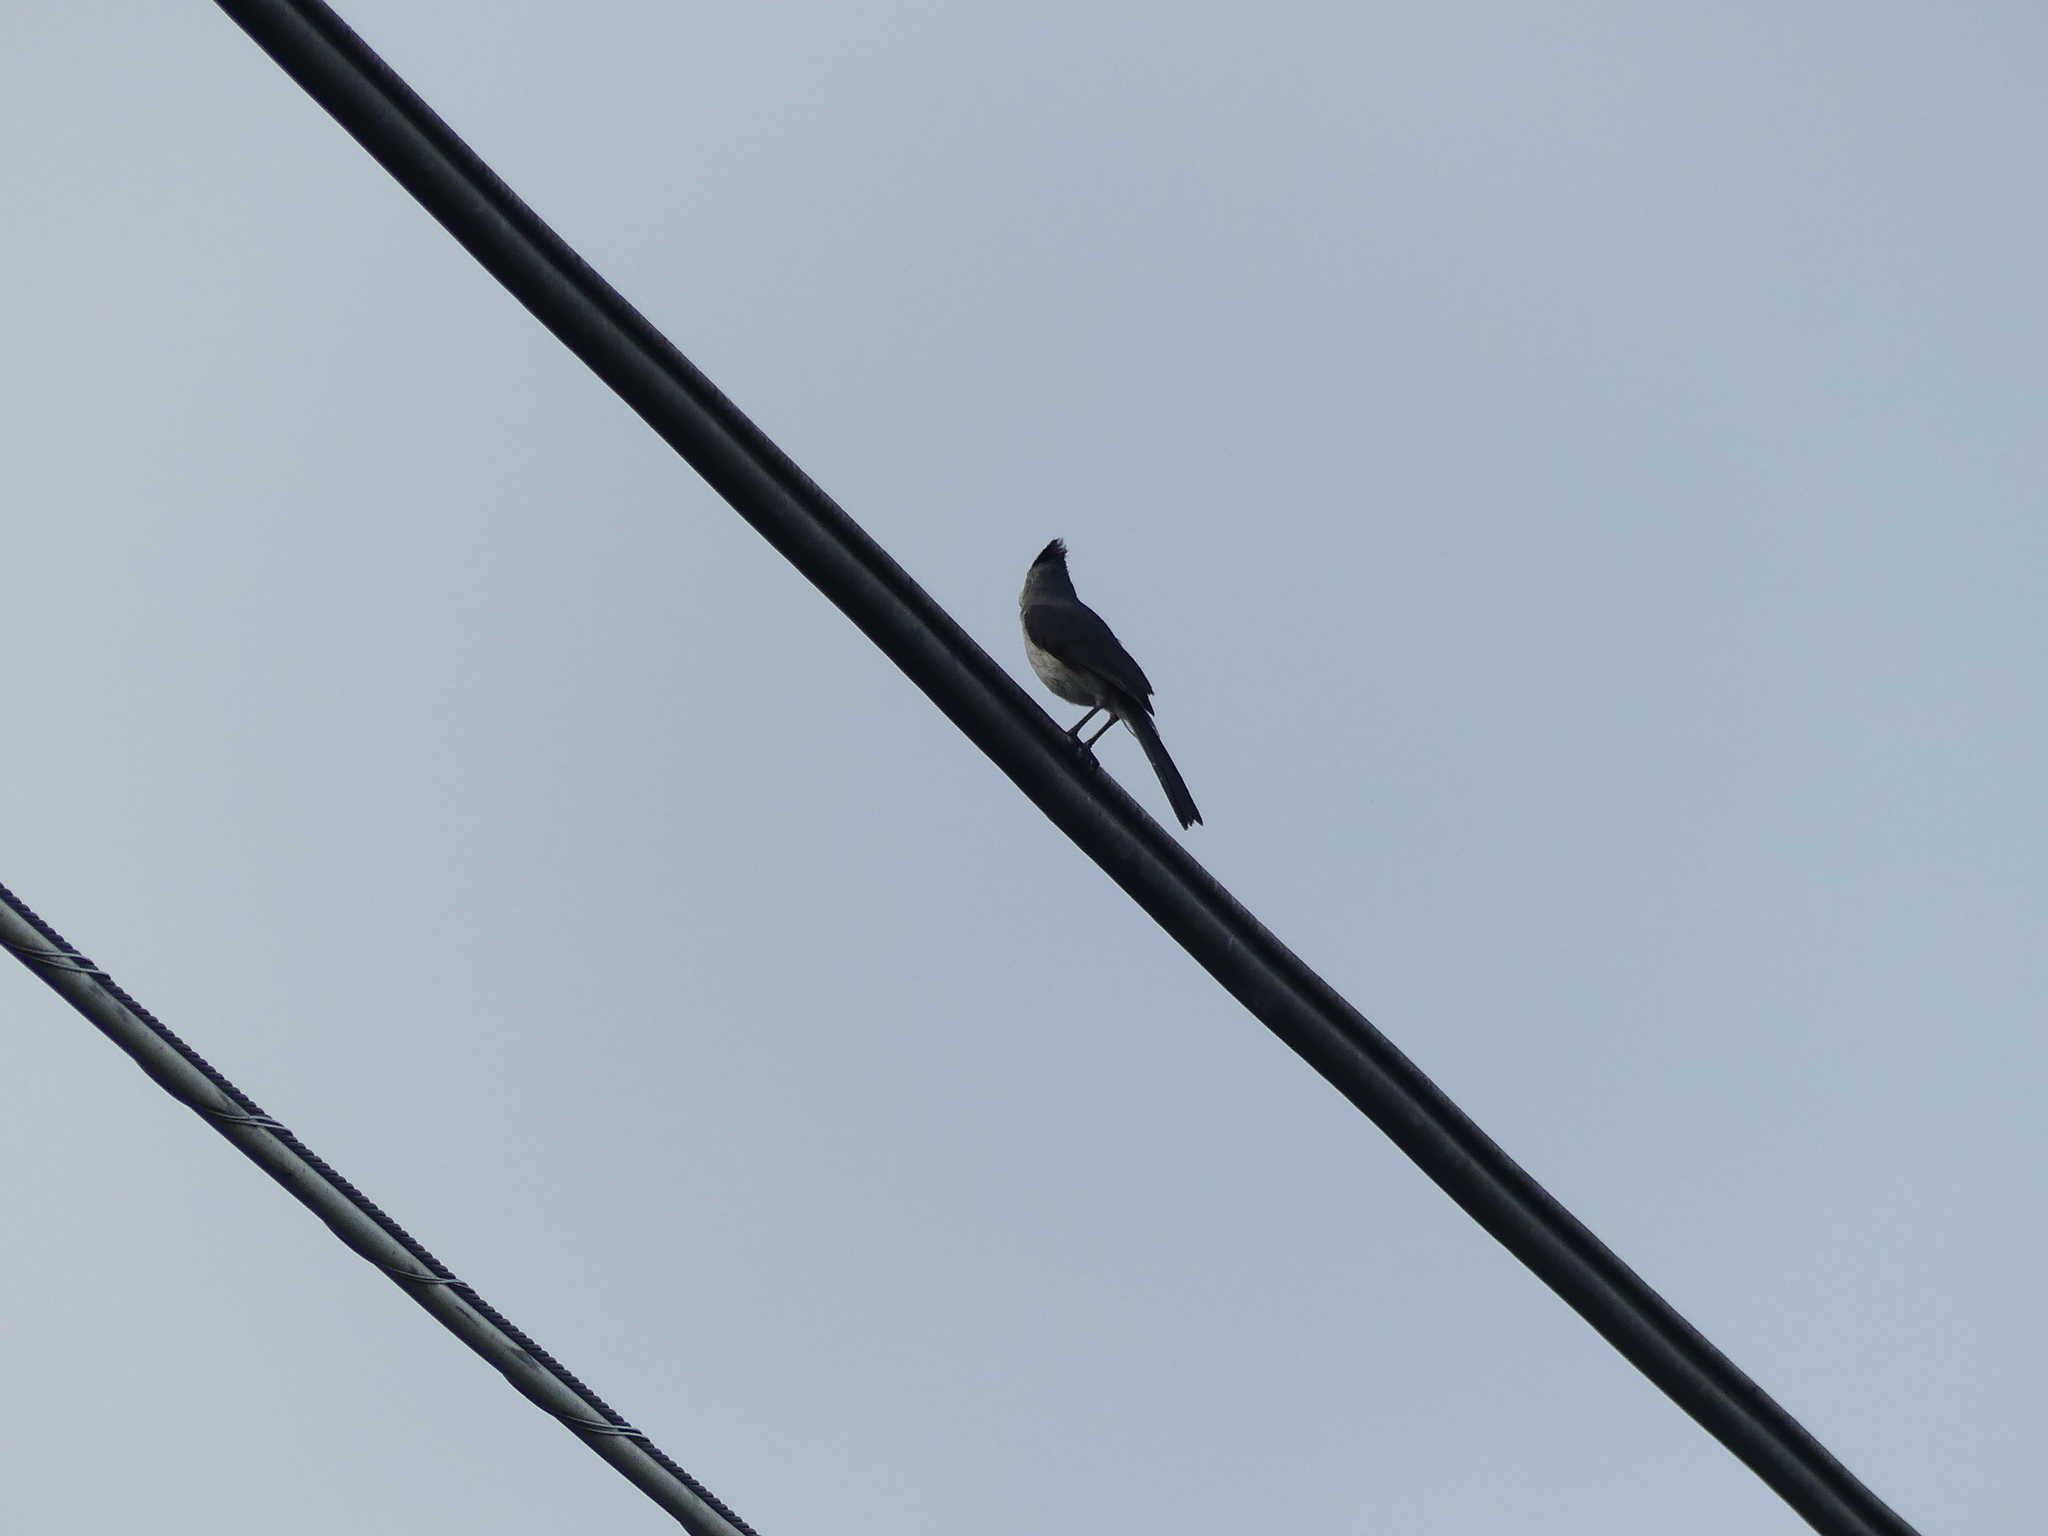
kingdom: Animalia
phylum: Chordata
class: Aves
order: Passeriformes
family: Paridae
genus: Baeolophus
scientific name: Baeolophus bicolor
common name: Tufted titmouse
